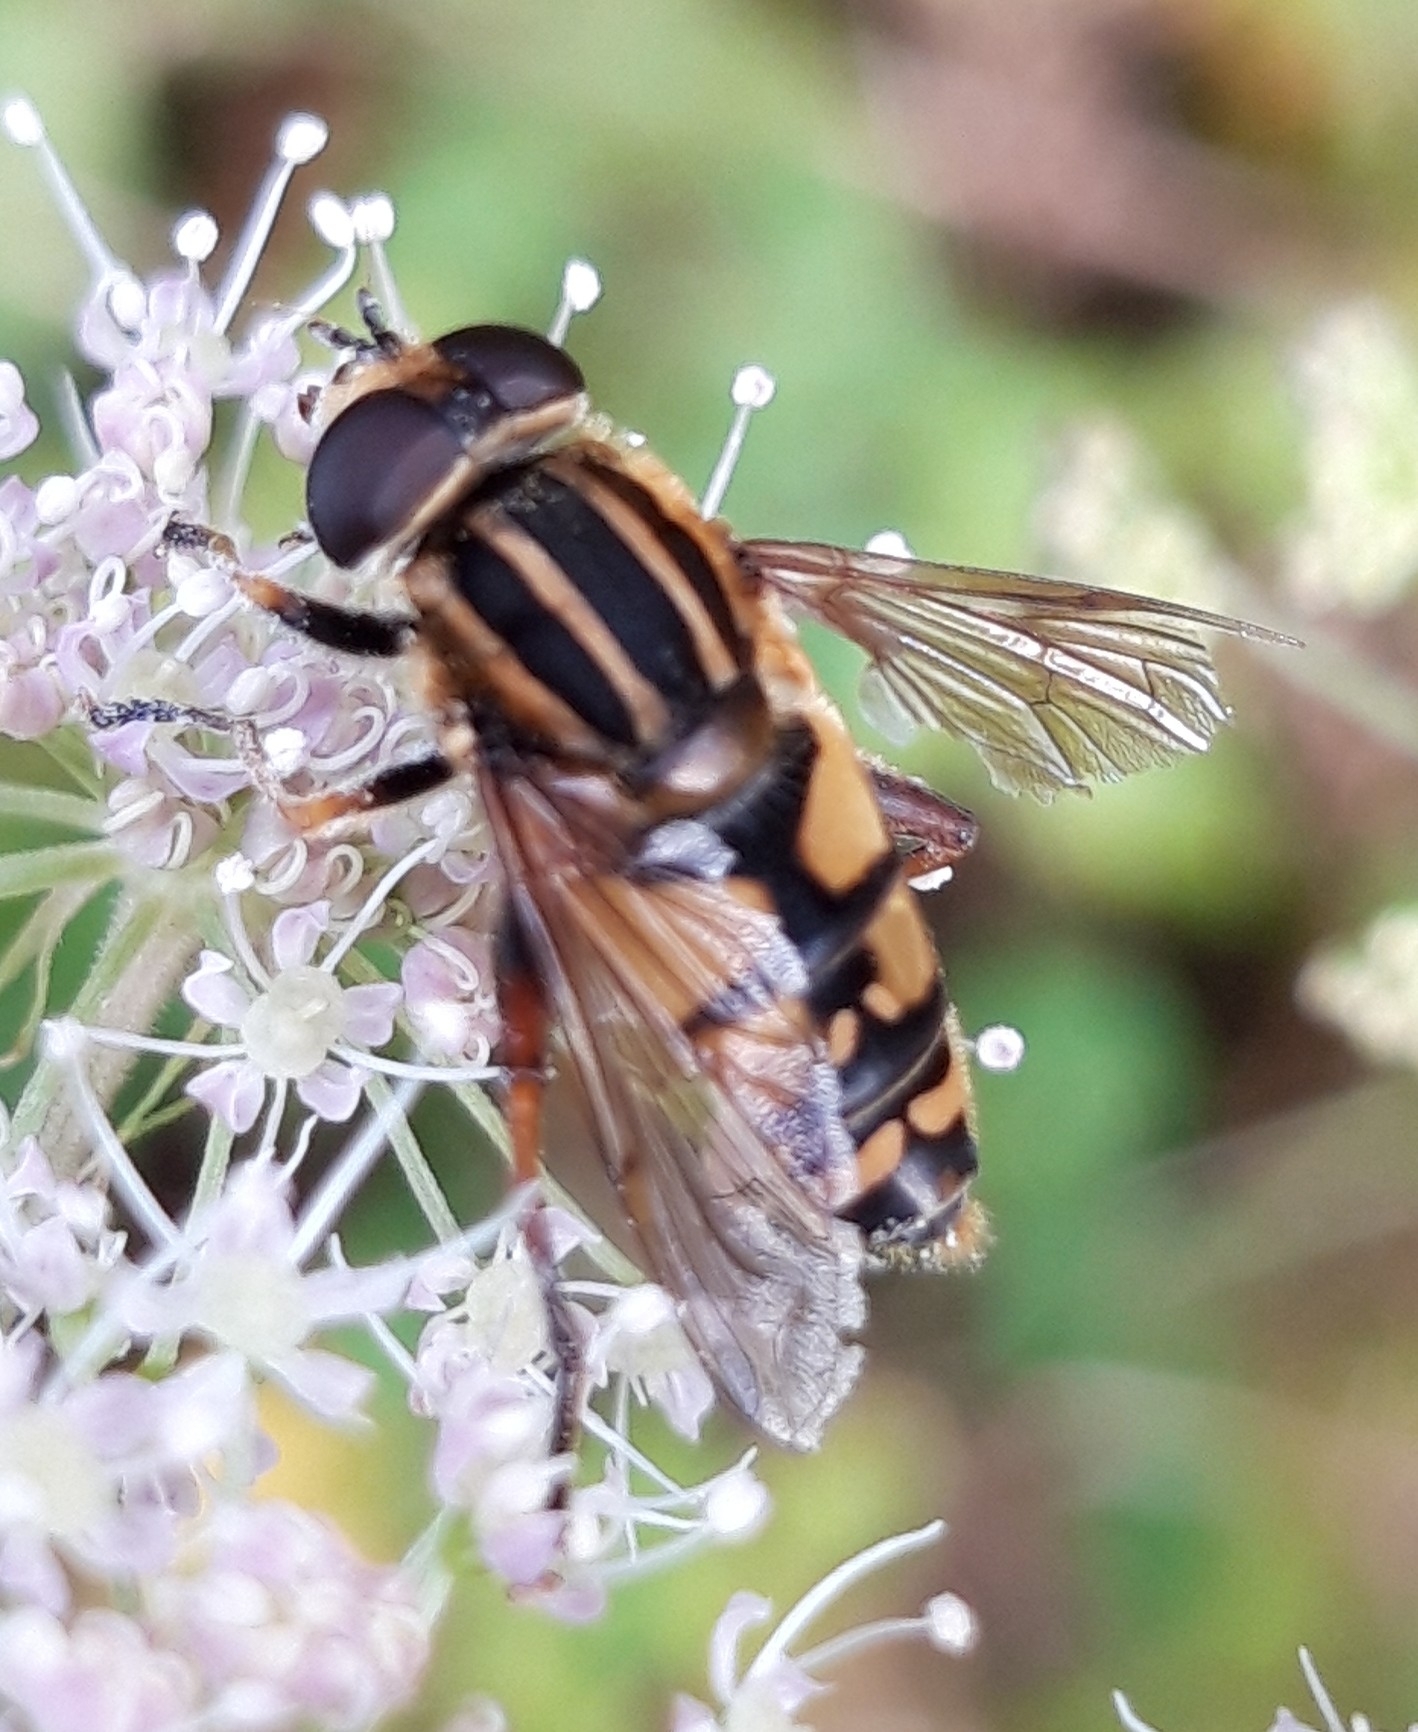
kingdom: Animalia
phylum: Arthropoda
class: Insecta
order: Diptera
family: Syrphidae
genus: Helophilus
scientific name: Helophilus pendulus
